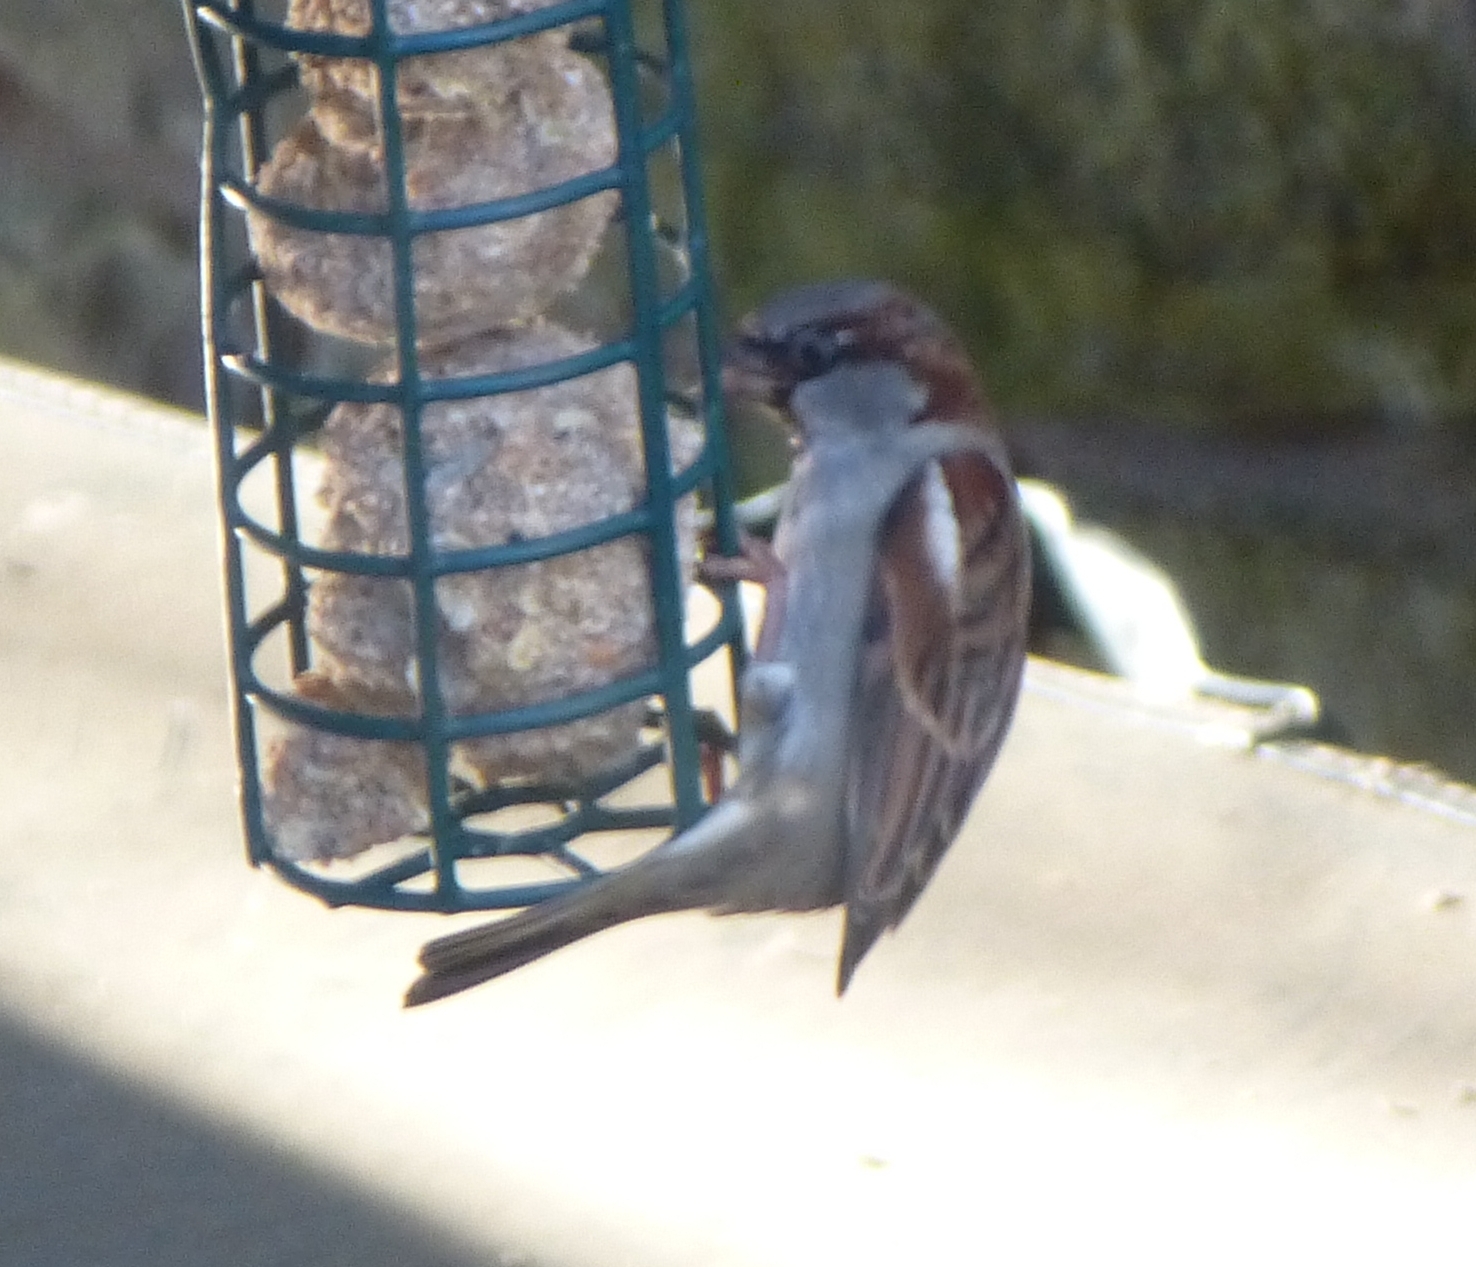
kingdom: Animalia
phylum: Chordata
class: Aves
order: Passeriformes
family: Passeridae
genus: Passer
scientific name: Passer domesticus
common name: House sparrow
